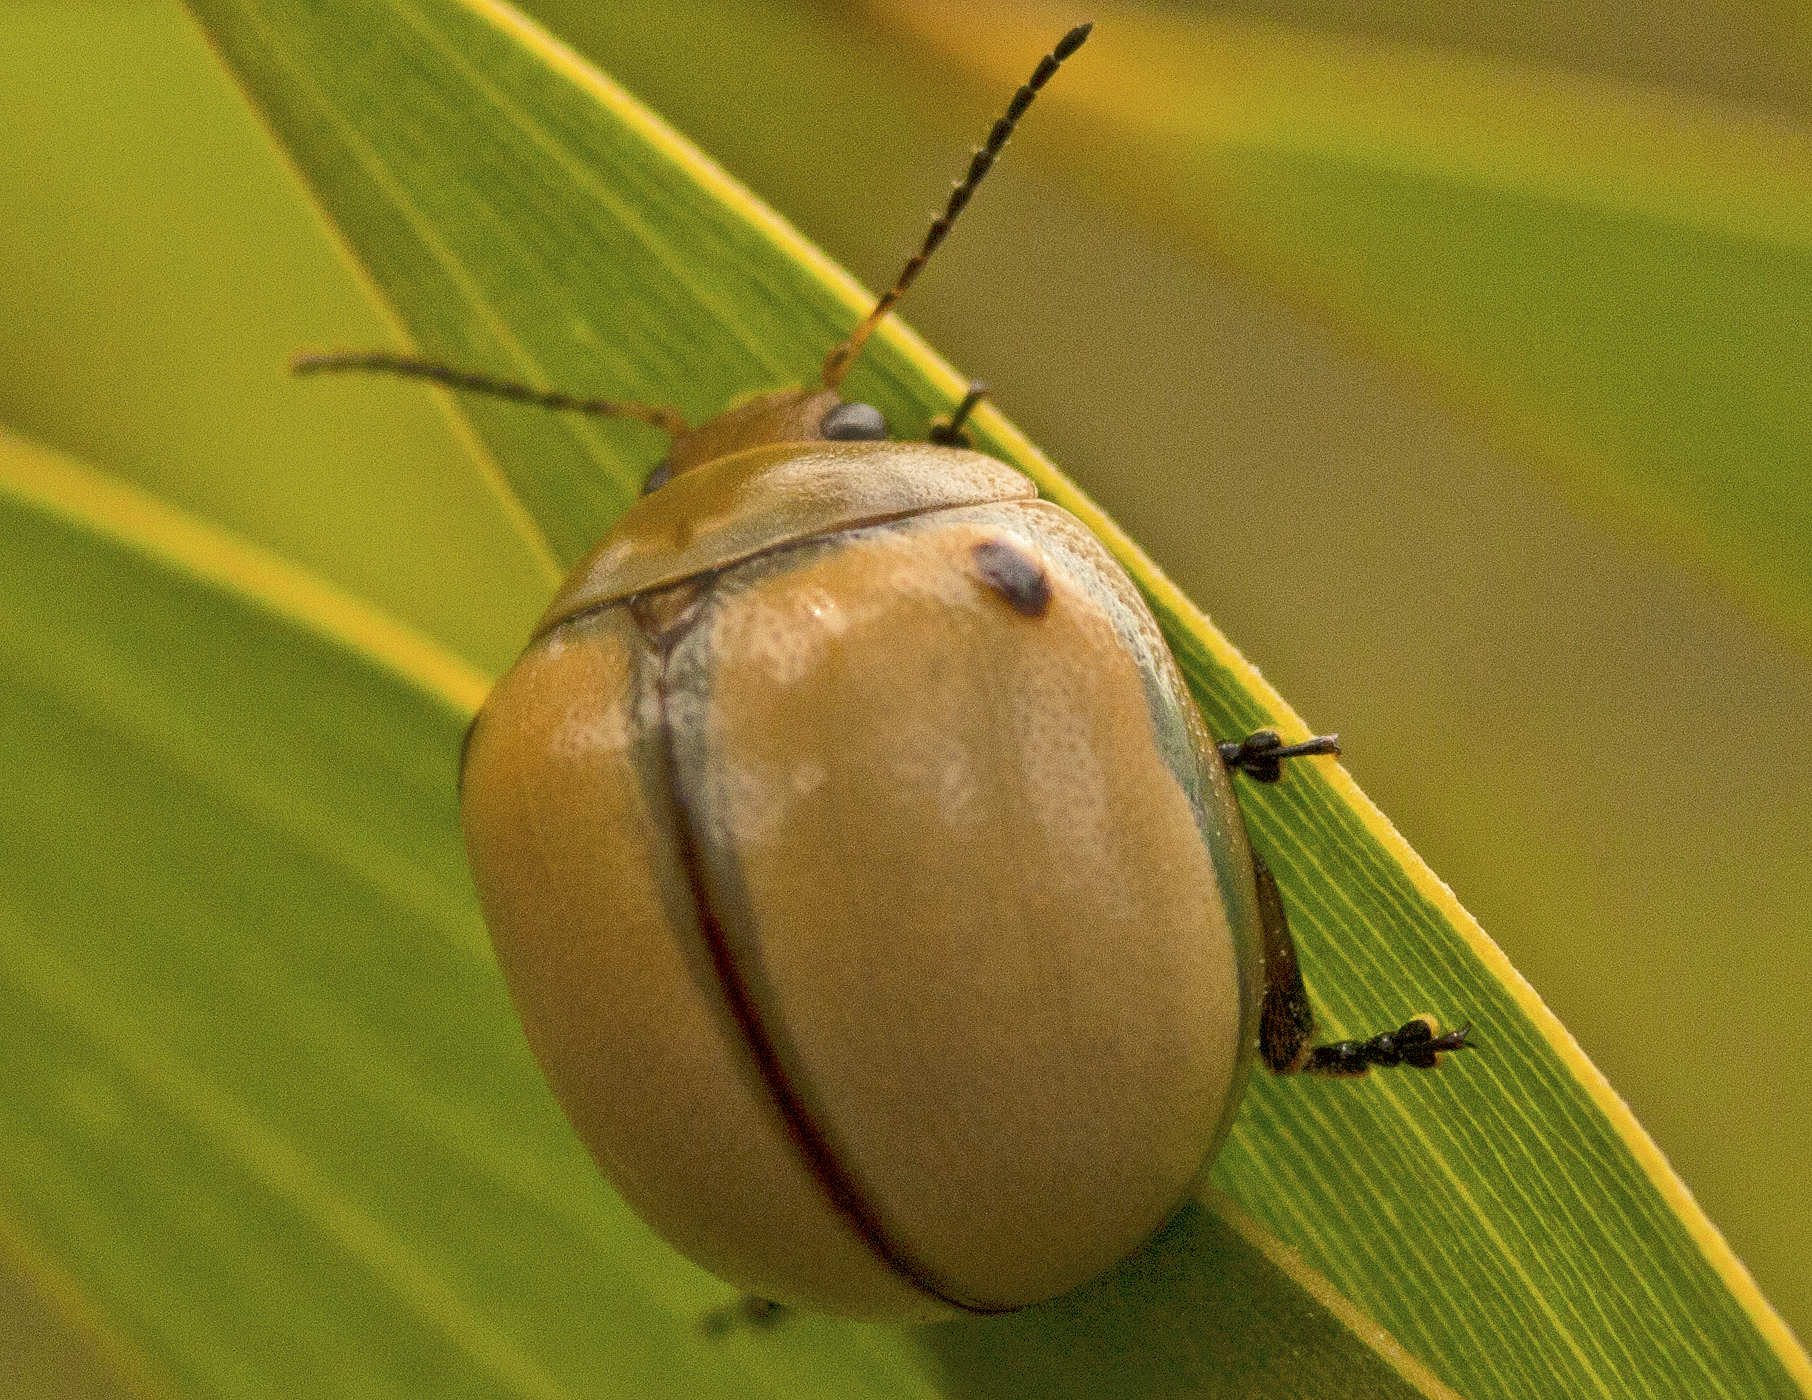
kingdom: Animalia
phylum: Arthropoda
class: Insecta
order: Coleoptera
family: Chrysomelidae
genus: Dicranosterna
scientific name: Dicranosterna
